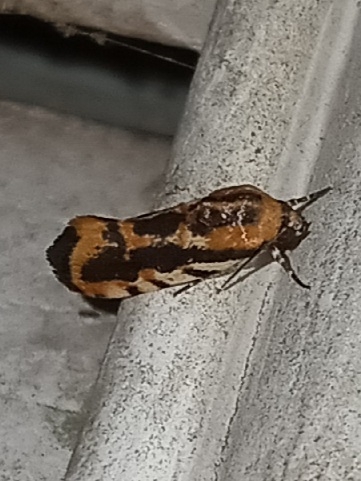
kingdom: Animalia
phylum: Arthropoda
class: Insecta
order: Lepidoptera
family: Noctuidae
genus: Acontia
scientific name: Acontia leo
